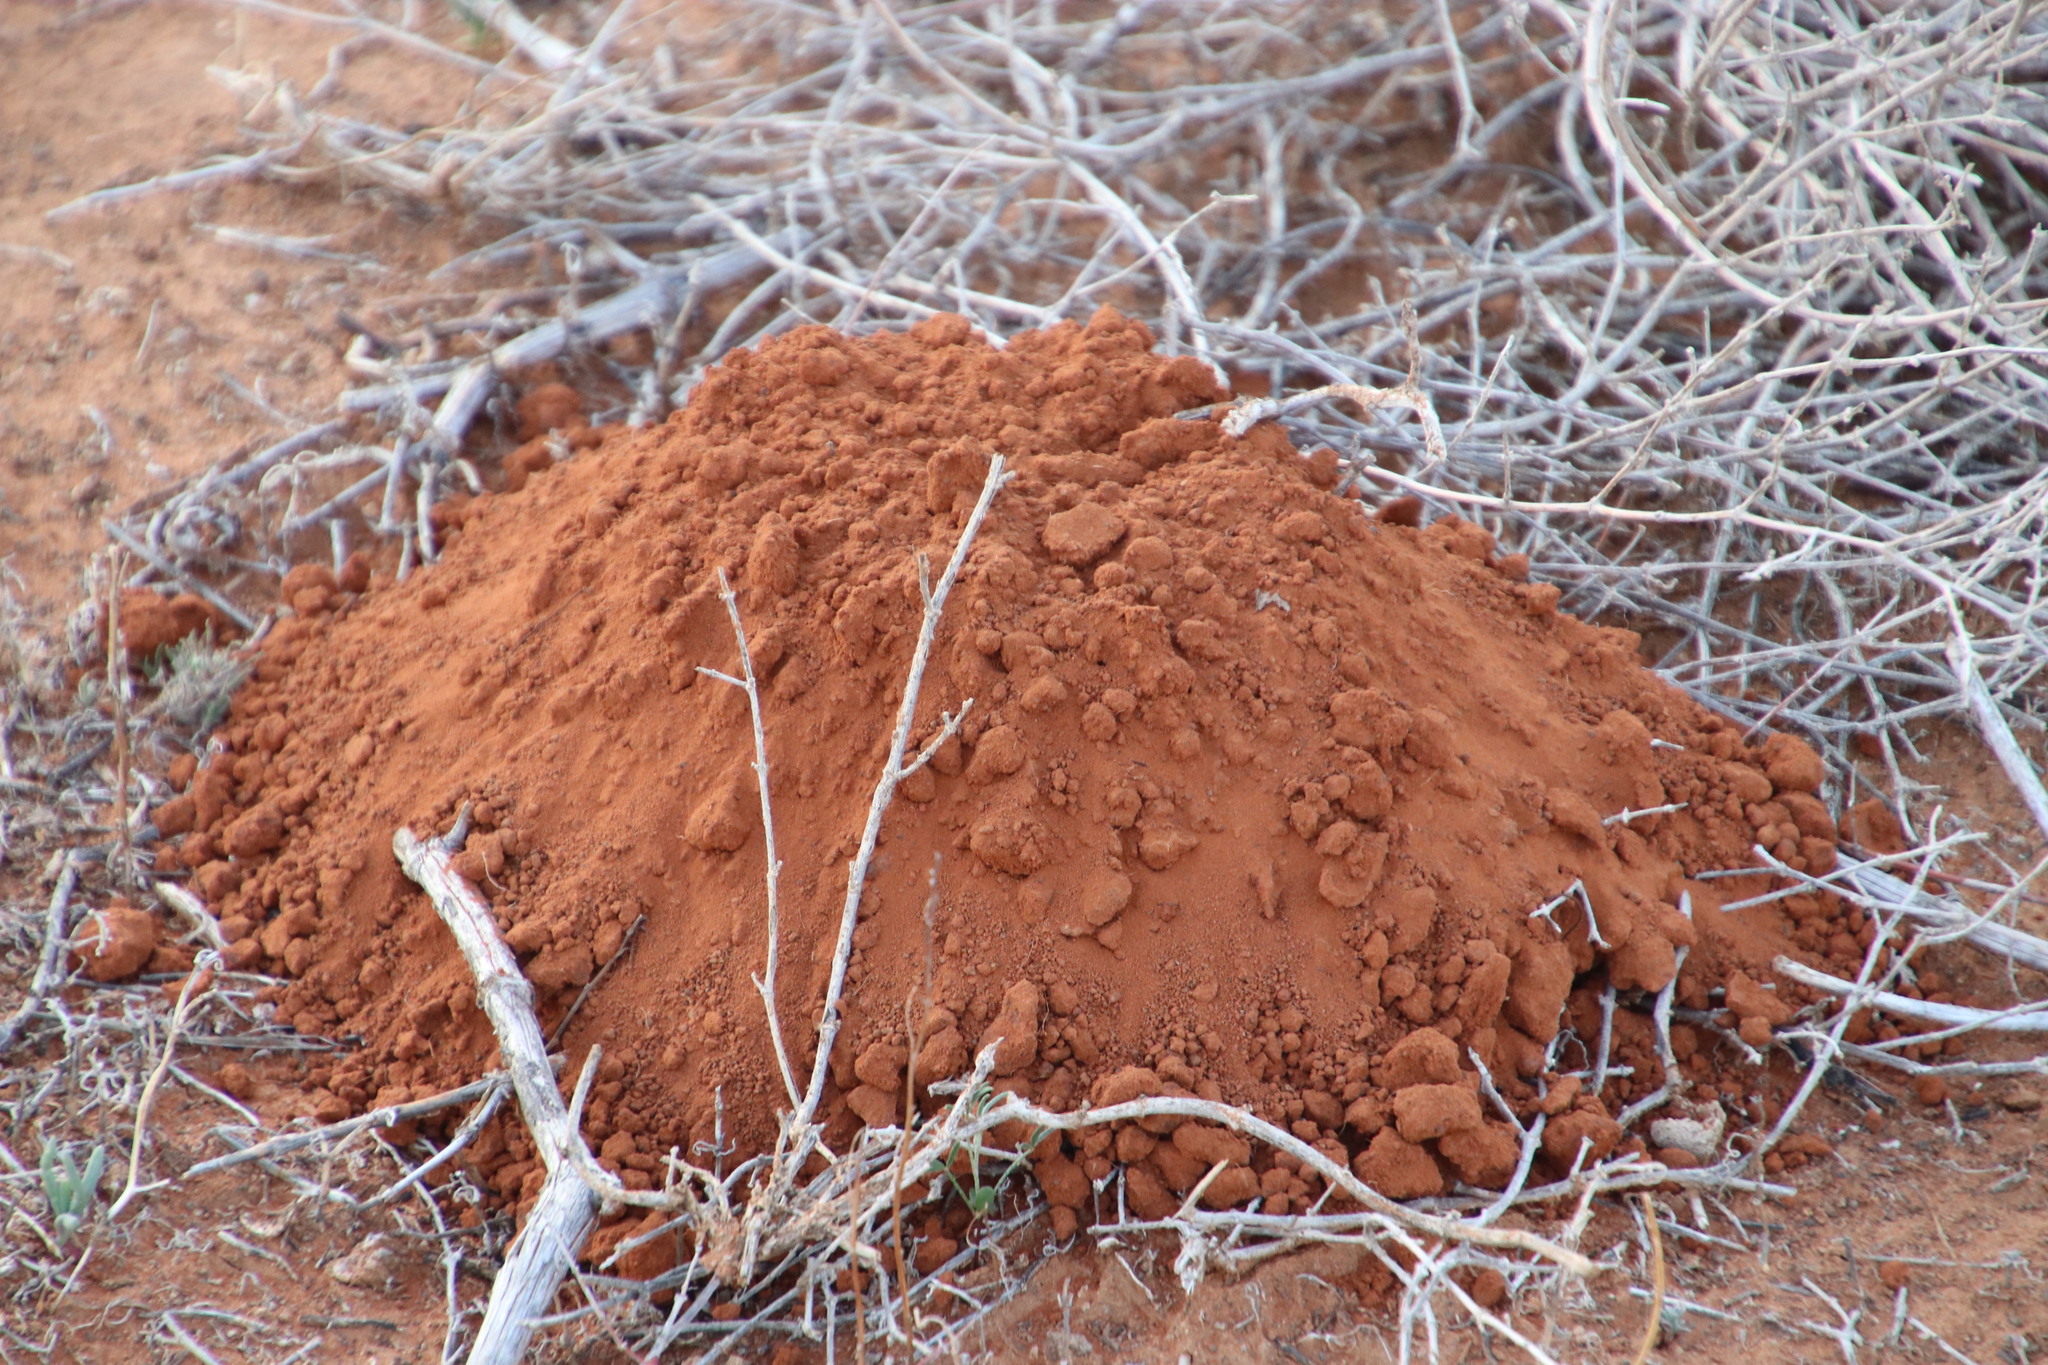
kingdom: Animalia
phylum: Chordata
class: Mammalia
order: Rodentia
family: Bathyergidae
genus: Cryptomys
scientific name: Cryptomys hottentotus
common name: Southern african mole-rat
